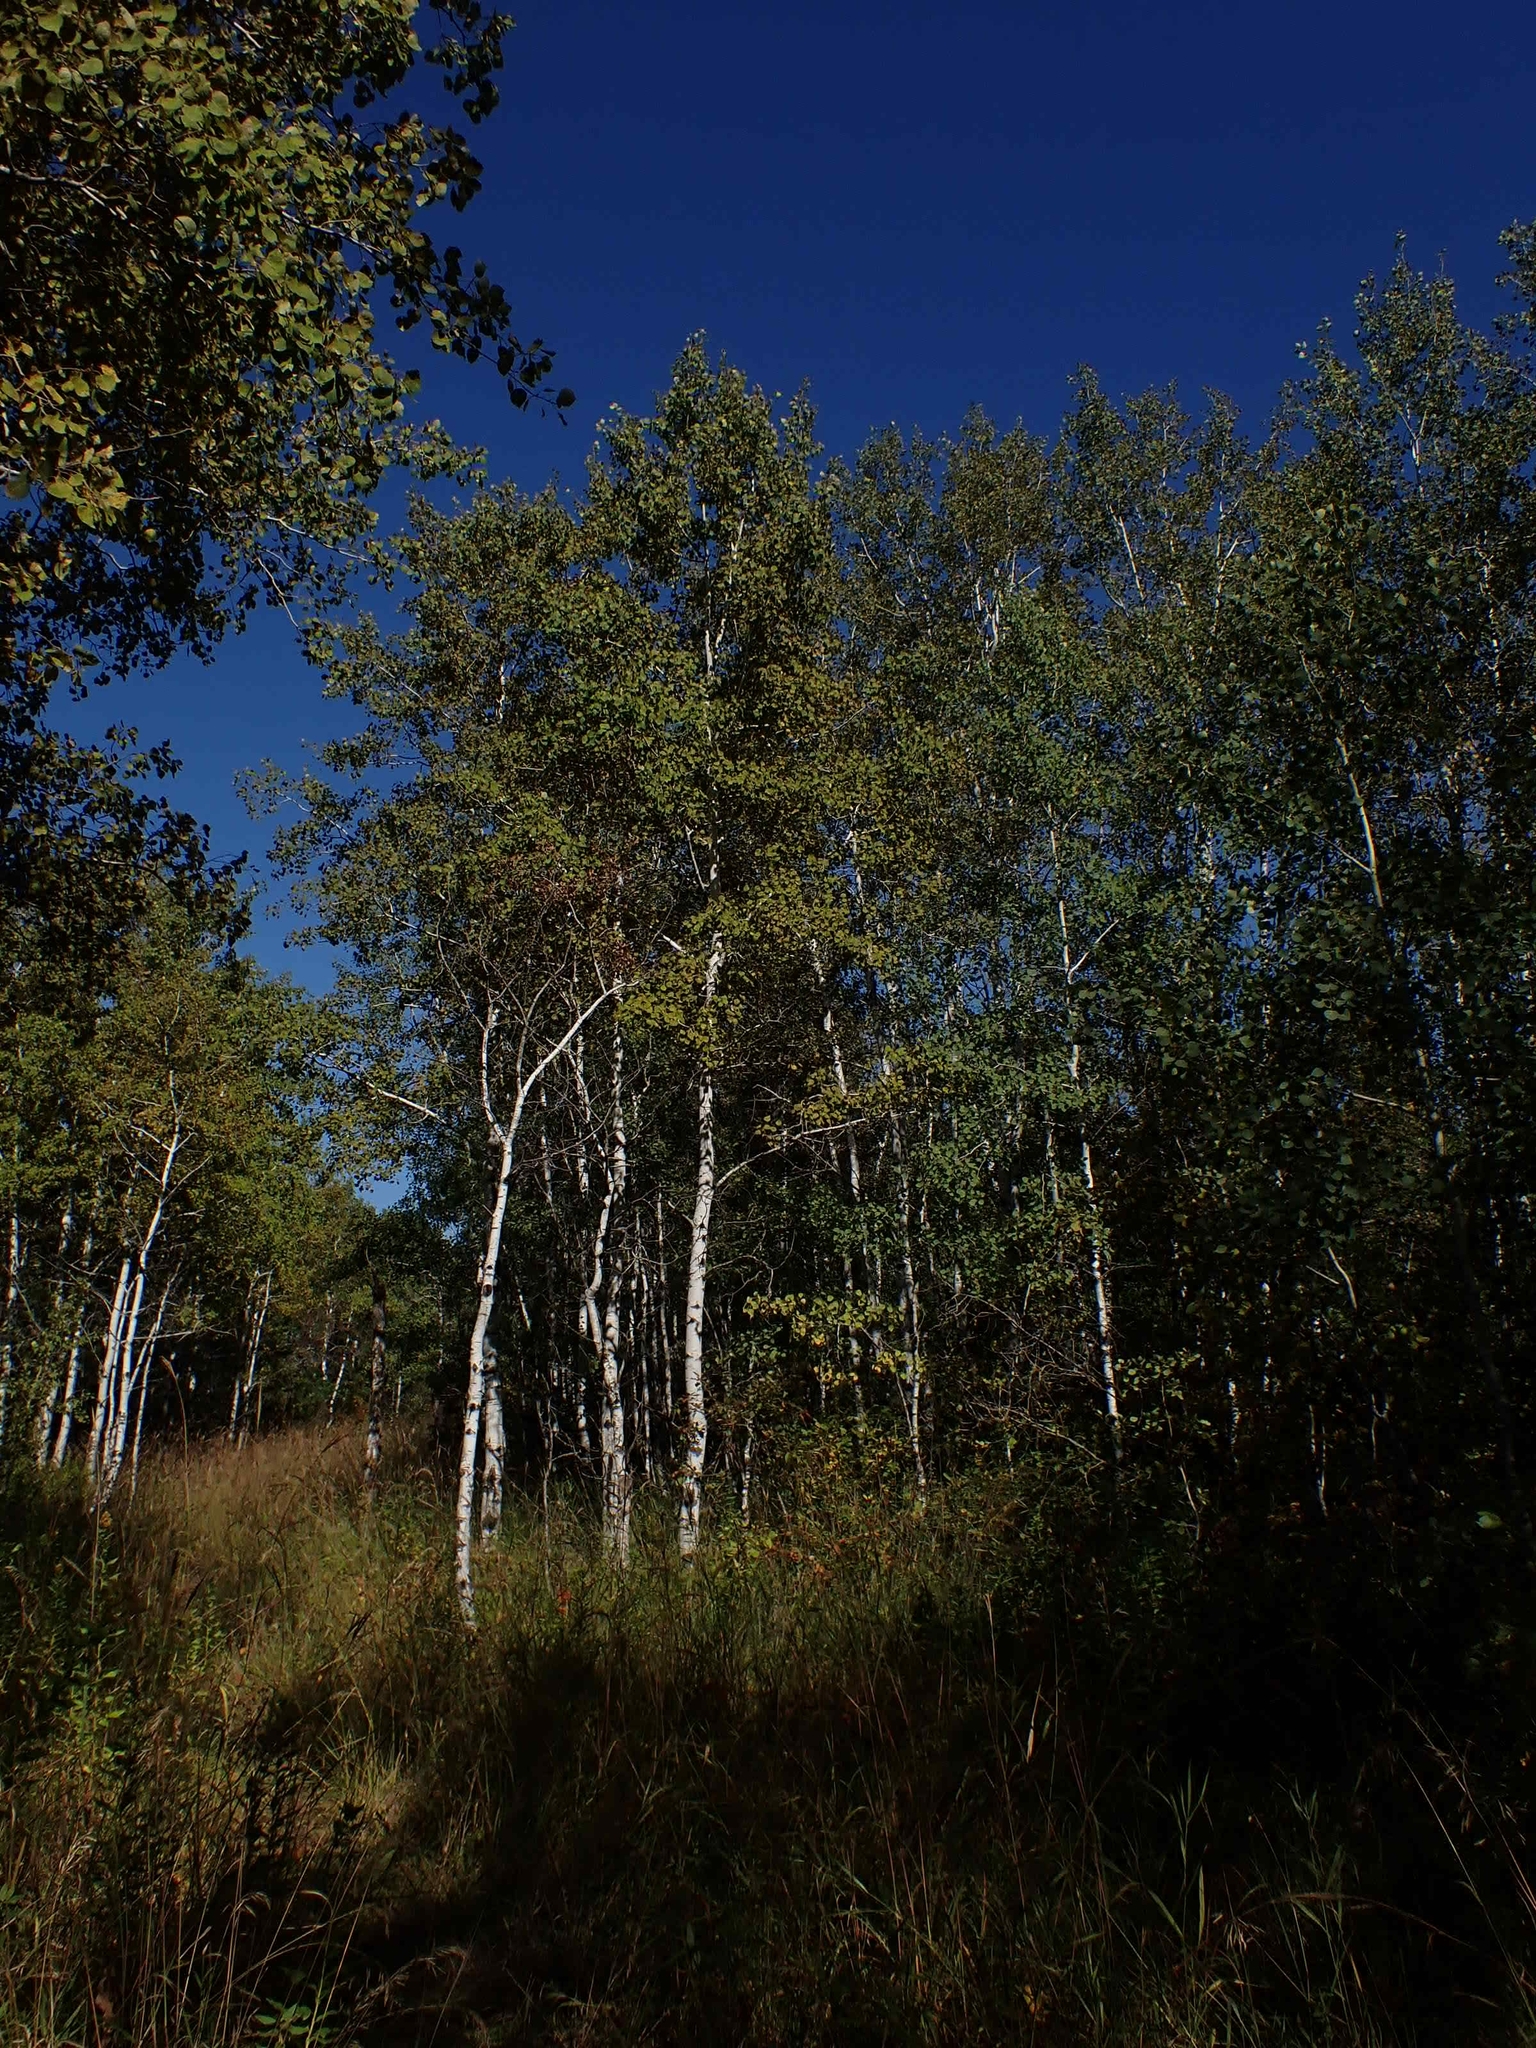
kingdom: Plantae
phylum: Tracheophyta
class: Magnoliopsida
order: Malpighiales
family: Salicaceae
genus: Populus
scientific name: Populus tremuloides
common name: Quaking aspen
